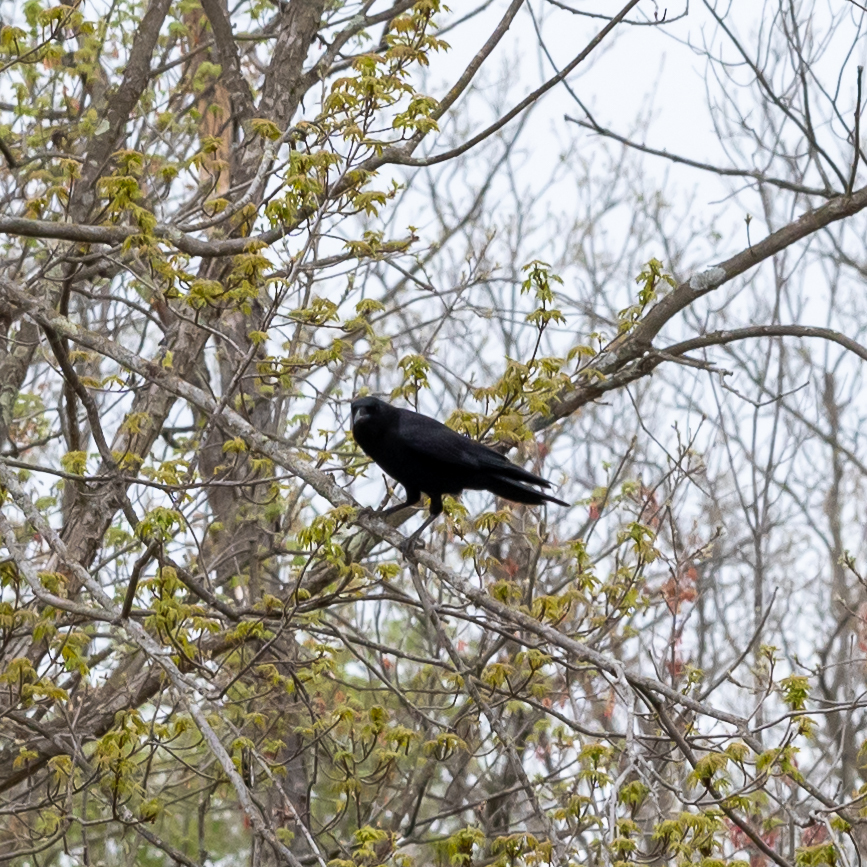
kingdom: Animalia
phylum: Chordata
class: Aves
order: Passeriformes
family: Corvidae
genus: Corvus
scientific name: Corvus brachyrhynchos
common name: American crow
